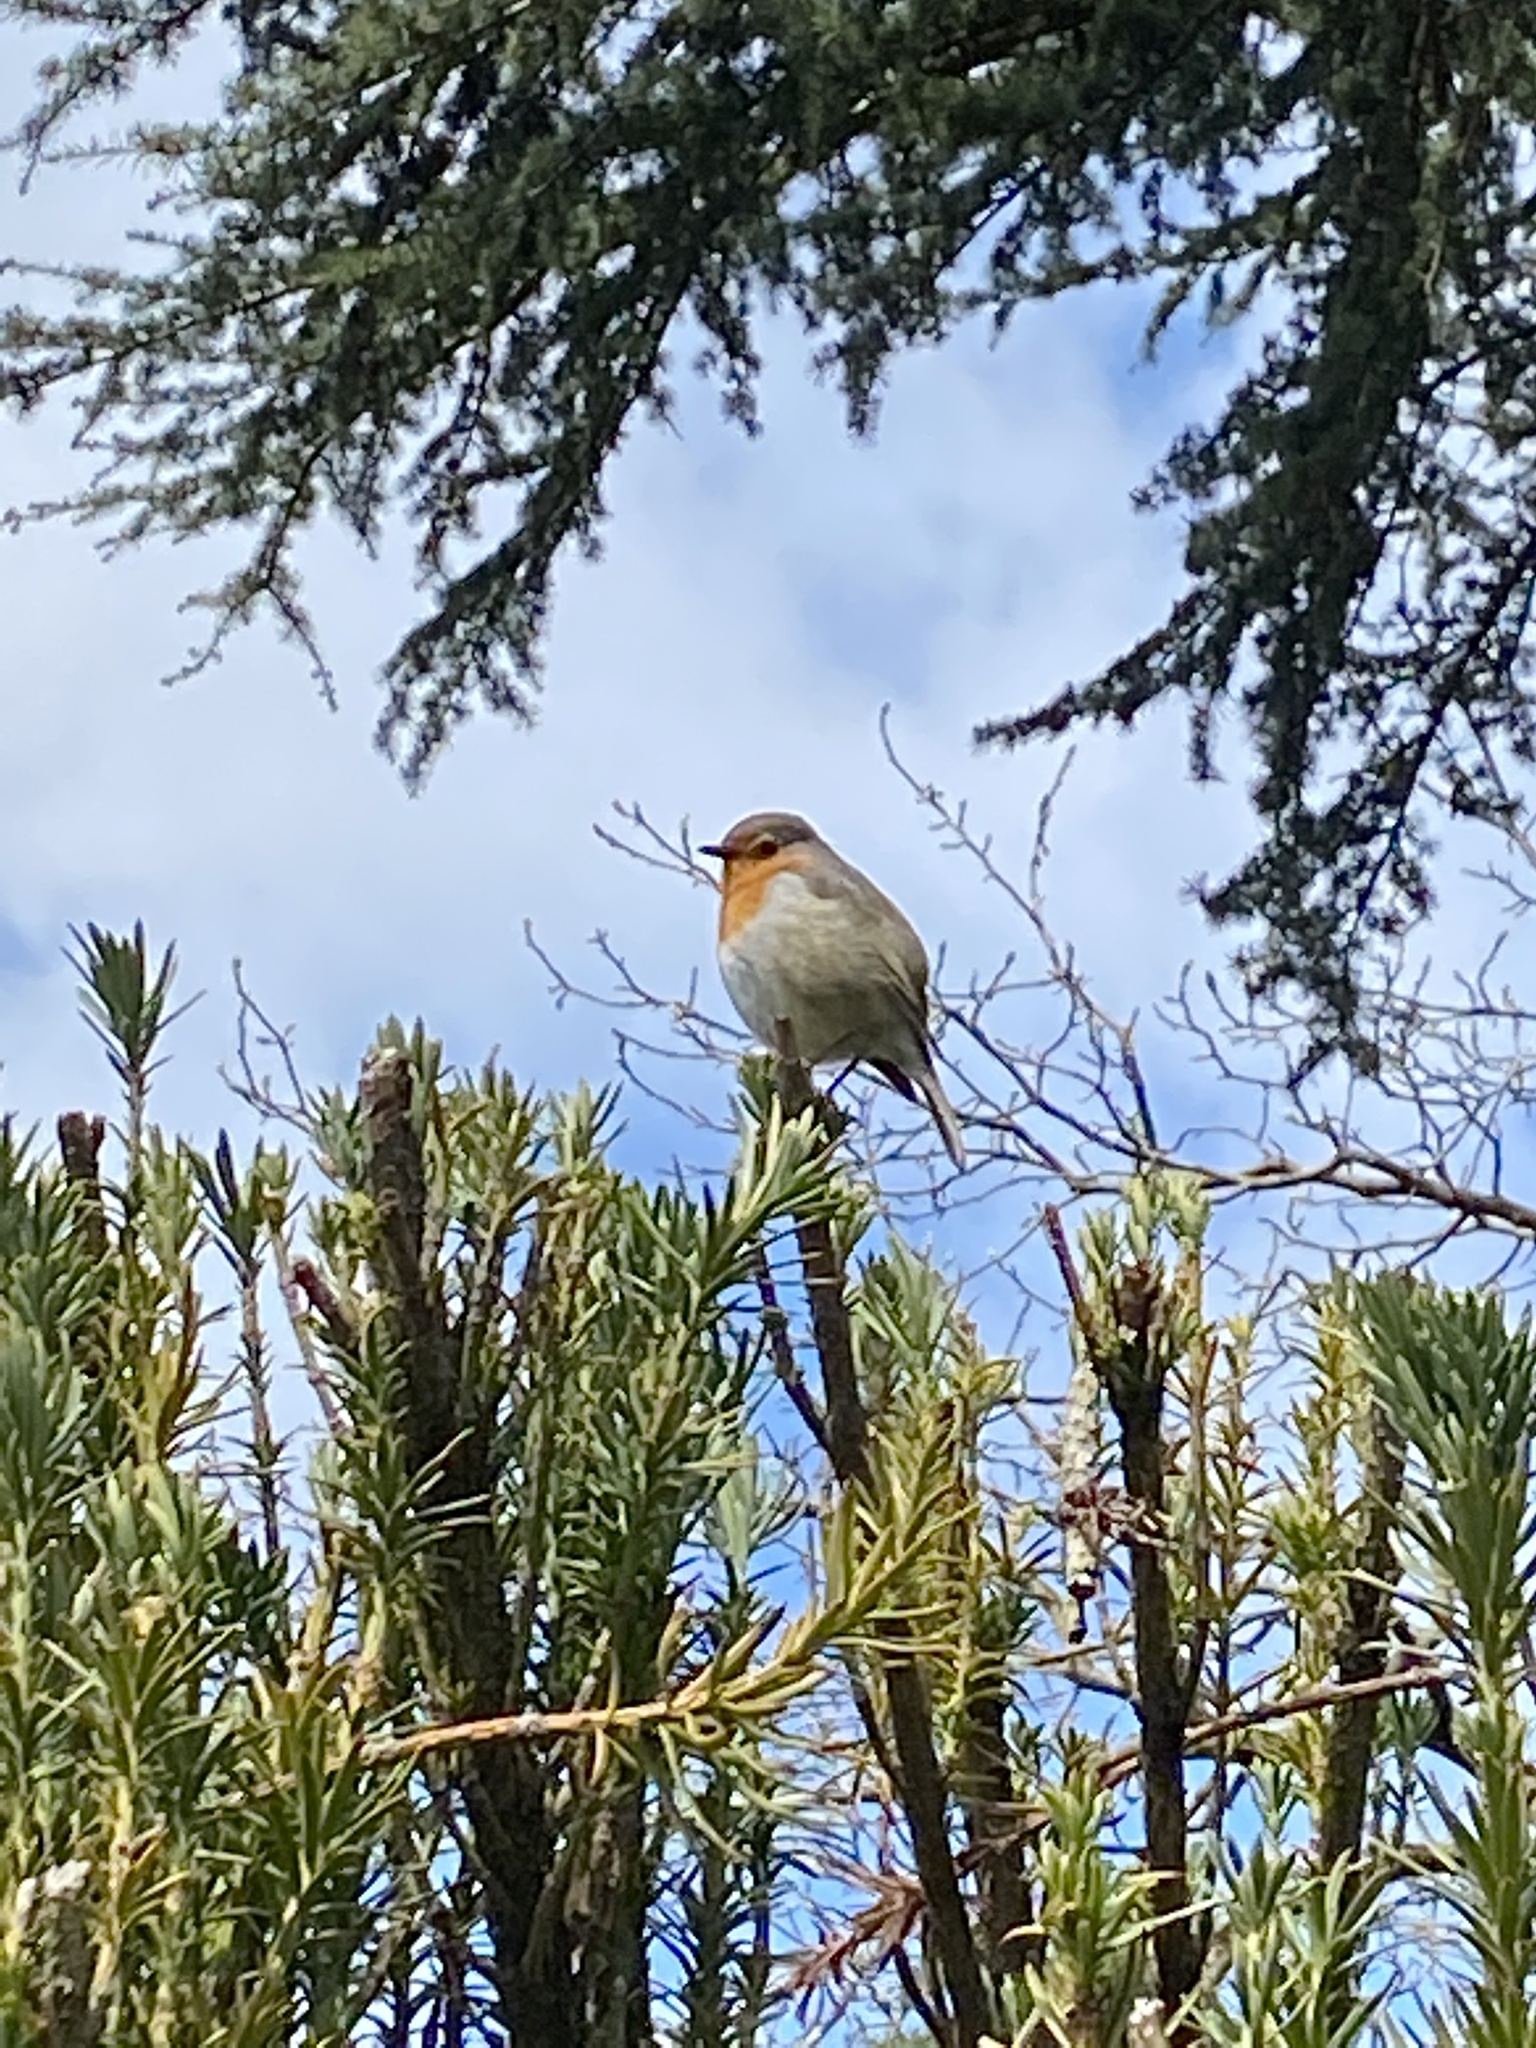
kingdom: Animalia
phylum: Chordata
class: Aves
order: Passeriformes
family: Muscicapidae
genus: Erithacus
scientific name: Erithacus rubecula
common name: European robin
